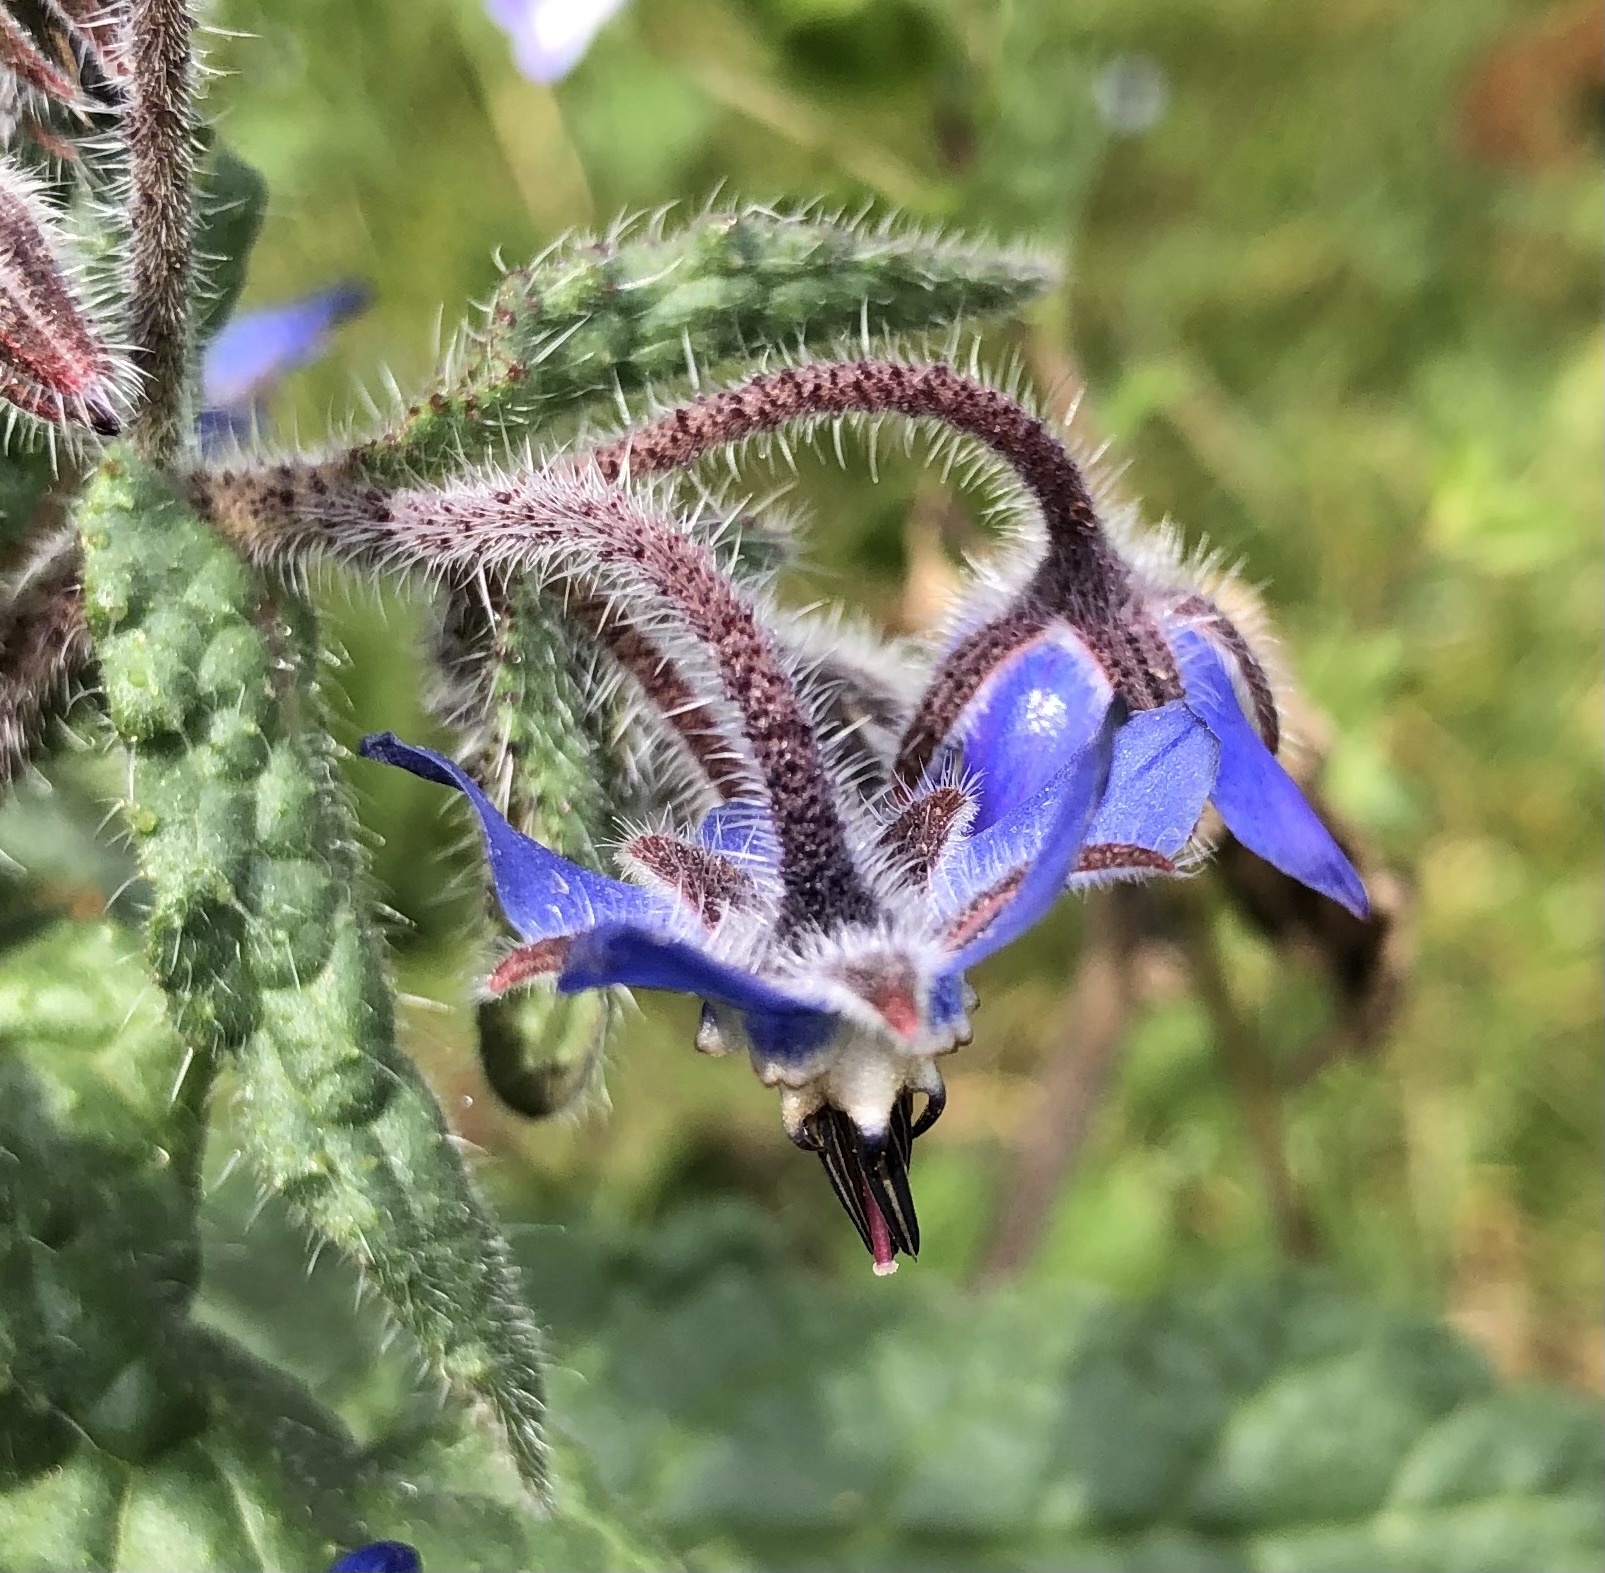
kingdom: Plantae
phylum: Tracheophyta
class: Magnoliopsida
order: Boraginales
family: Boraginaceae
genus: Borago
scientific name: Borago officinalis
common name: Borage
